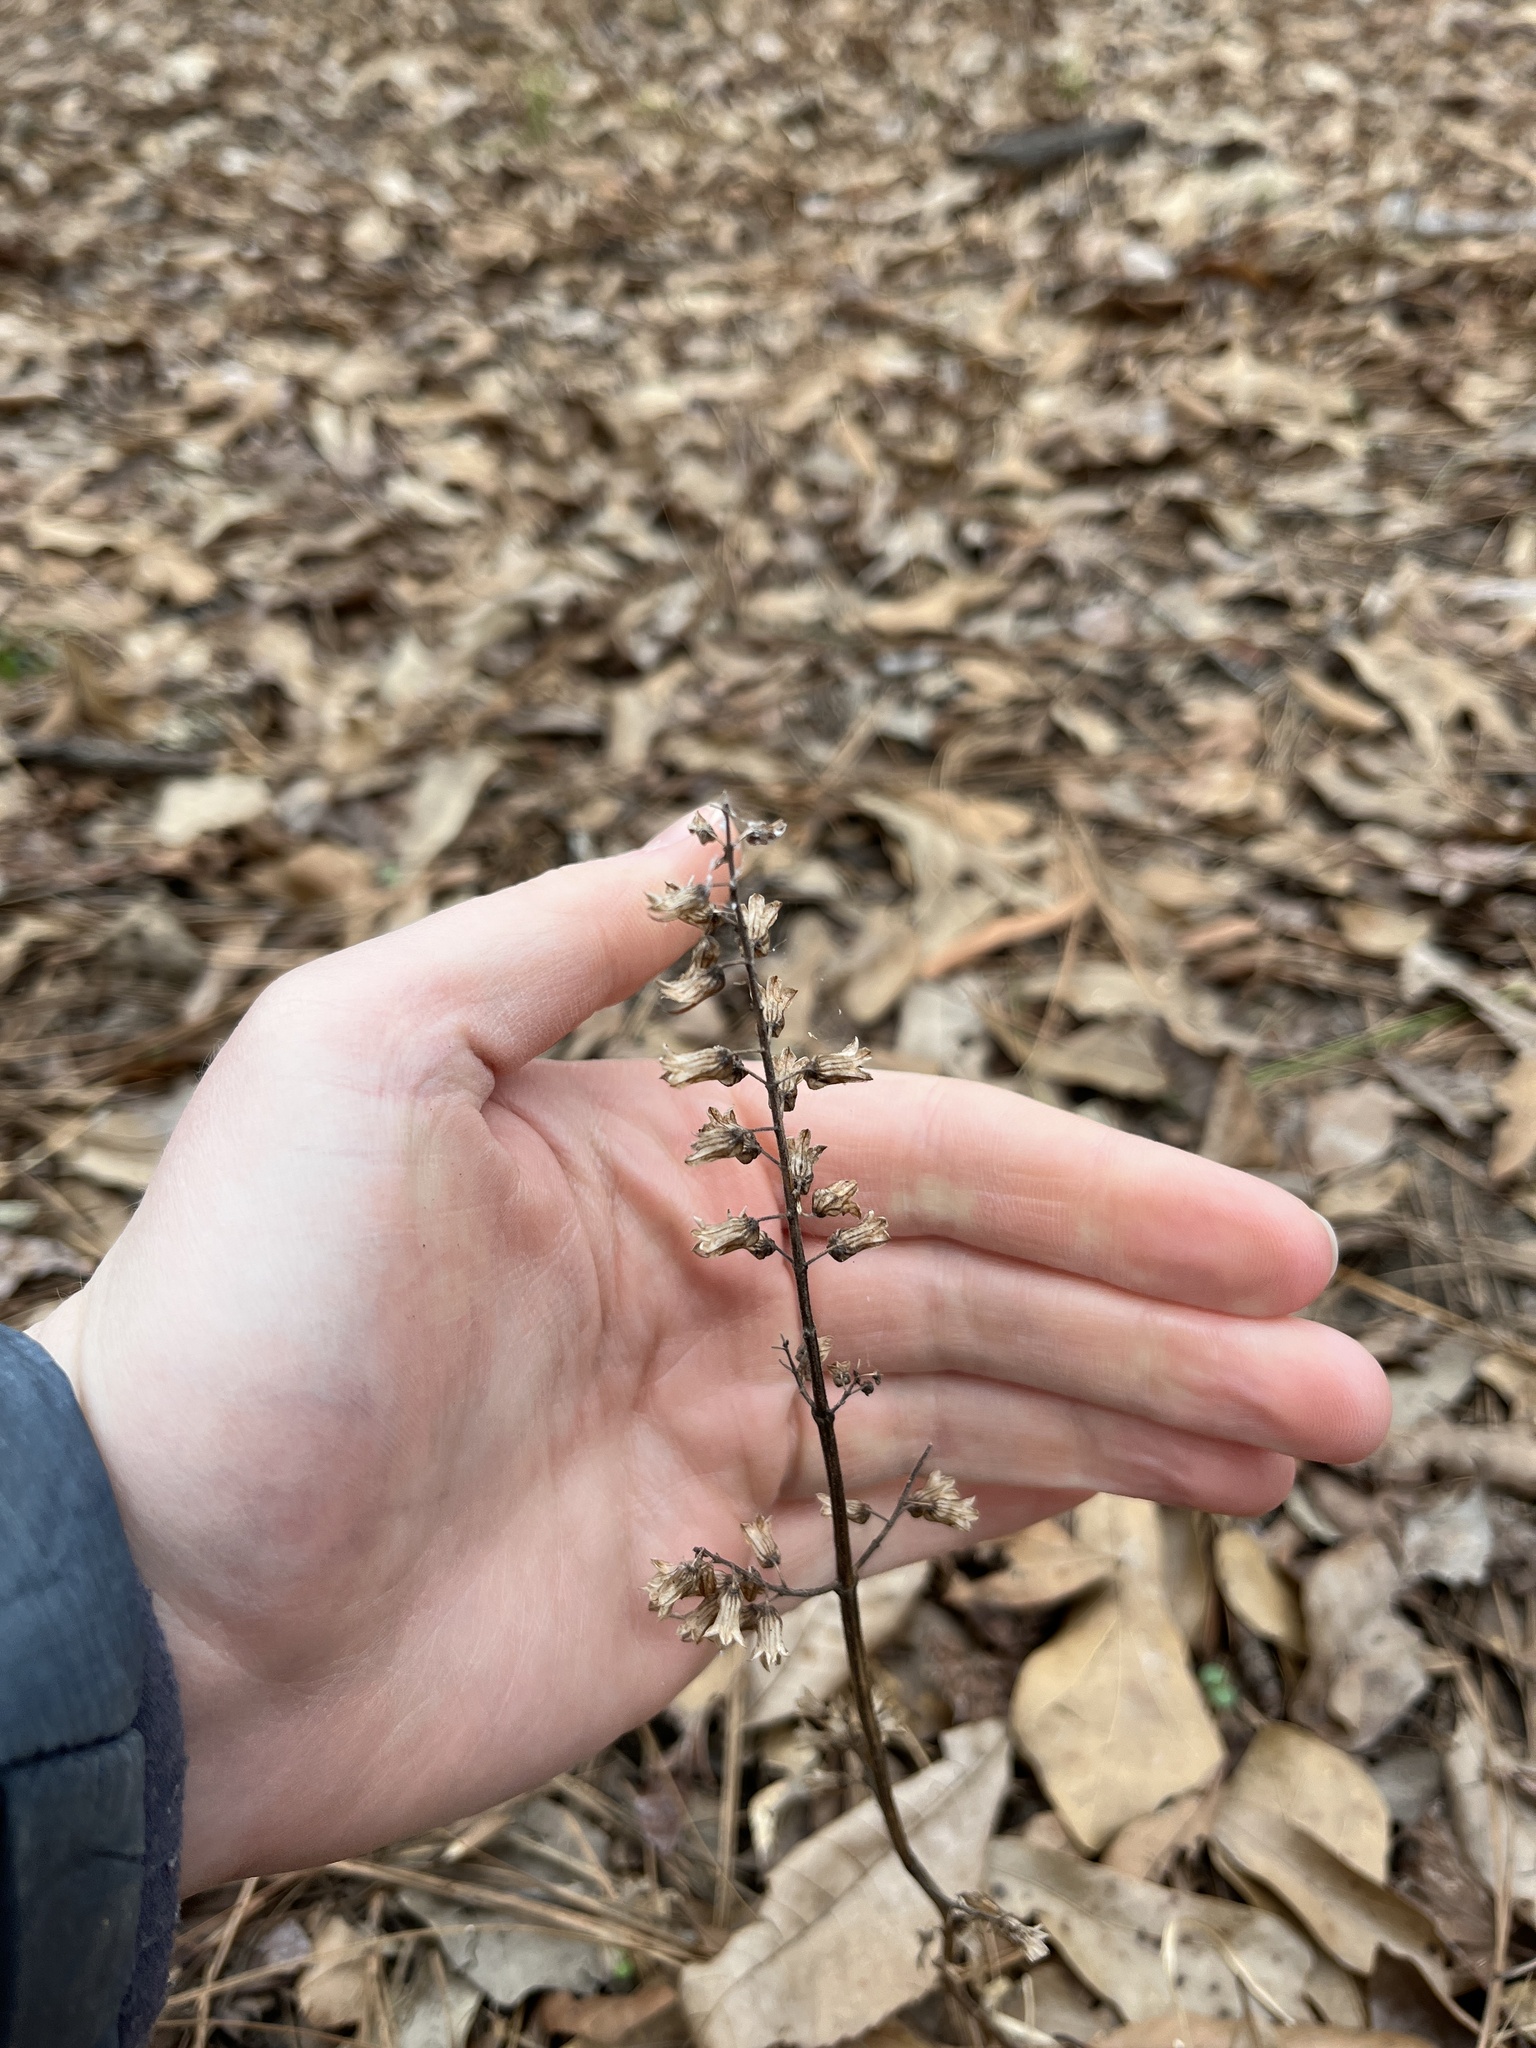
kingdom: Plantae
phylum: Tracheophyta
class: Magnoliopsida
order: Lamiales
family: Lamiaceae
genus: Perilla
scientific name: Perilla frutescens
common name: Perilla
